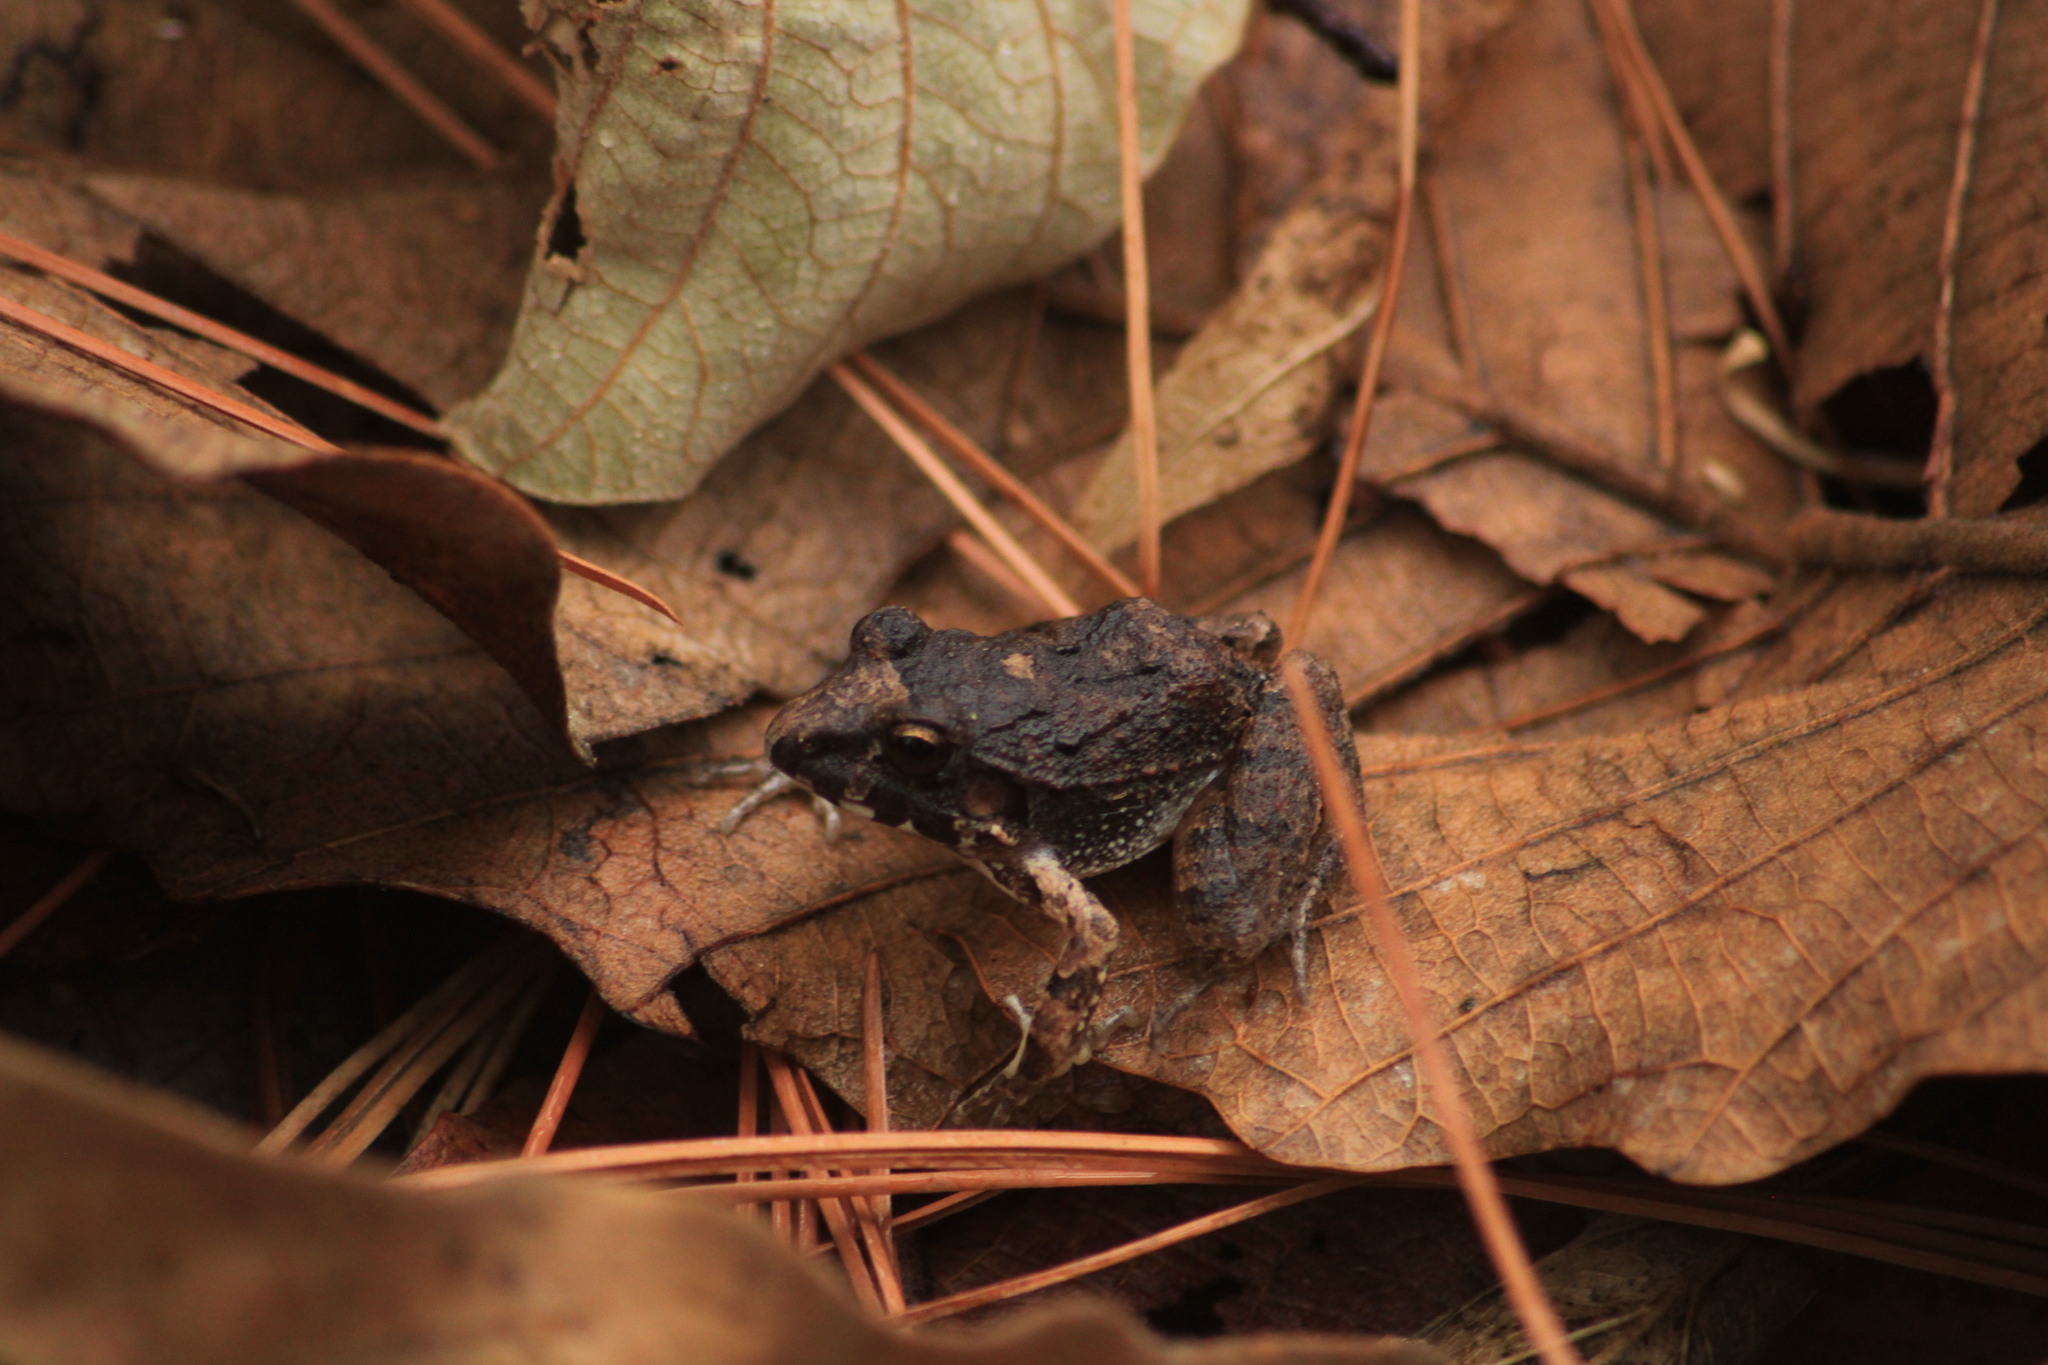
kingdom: Animalia
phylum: Chordata
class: Amphibia
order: Anura
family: Craugastoridae
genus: Craugastor
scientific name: Craugastor occidentalis
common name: Taylor's barking frog
